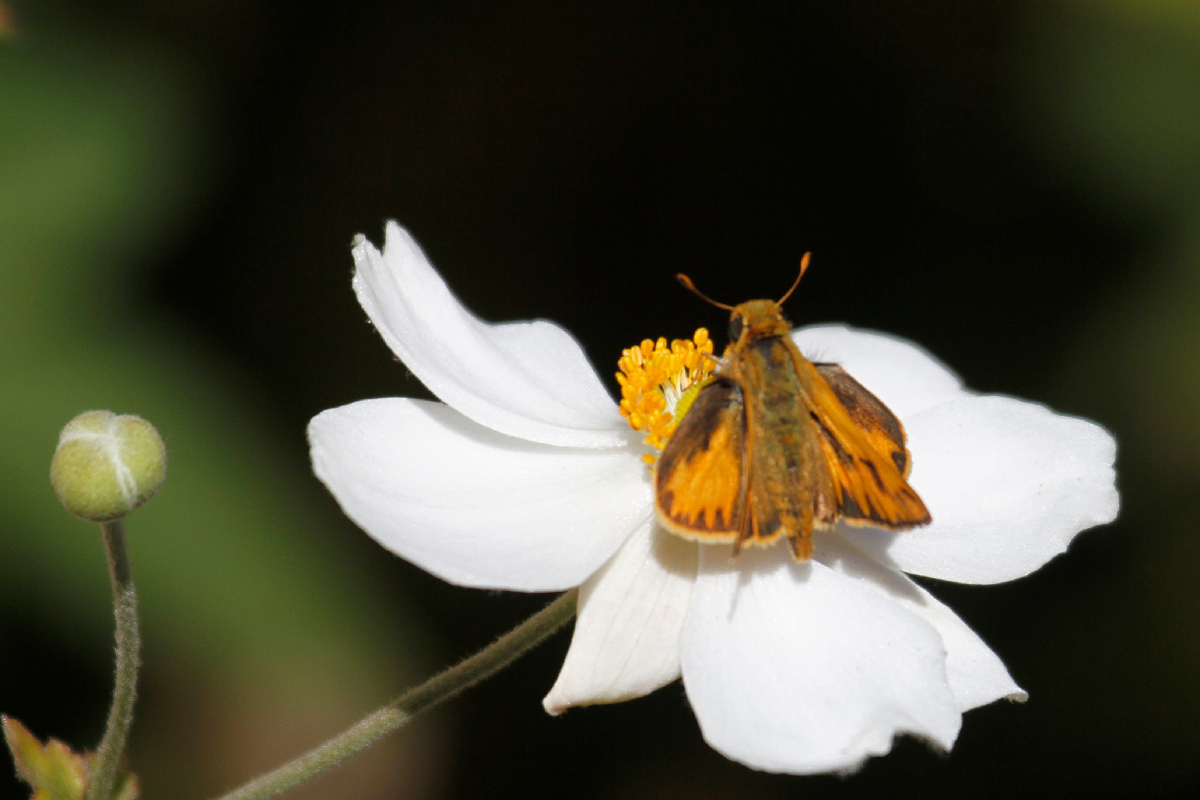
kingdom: Animalia
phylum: Arthropoda
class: Insecta
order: Lepidoptera
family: Hesperiidae
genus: Hylephila
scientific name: Hylephila phyleus
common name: Fiery skipper
